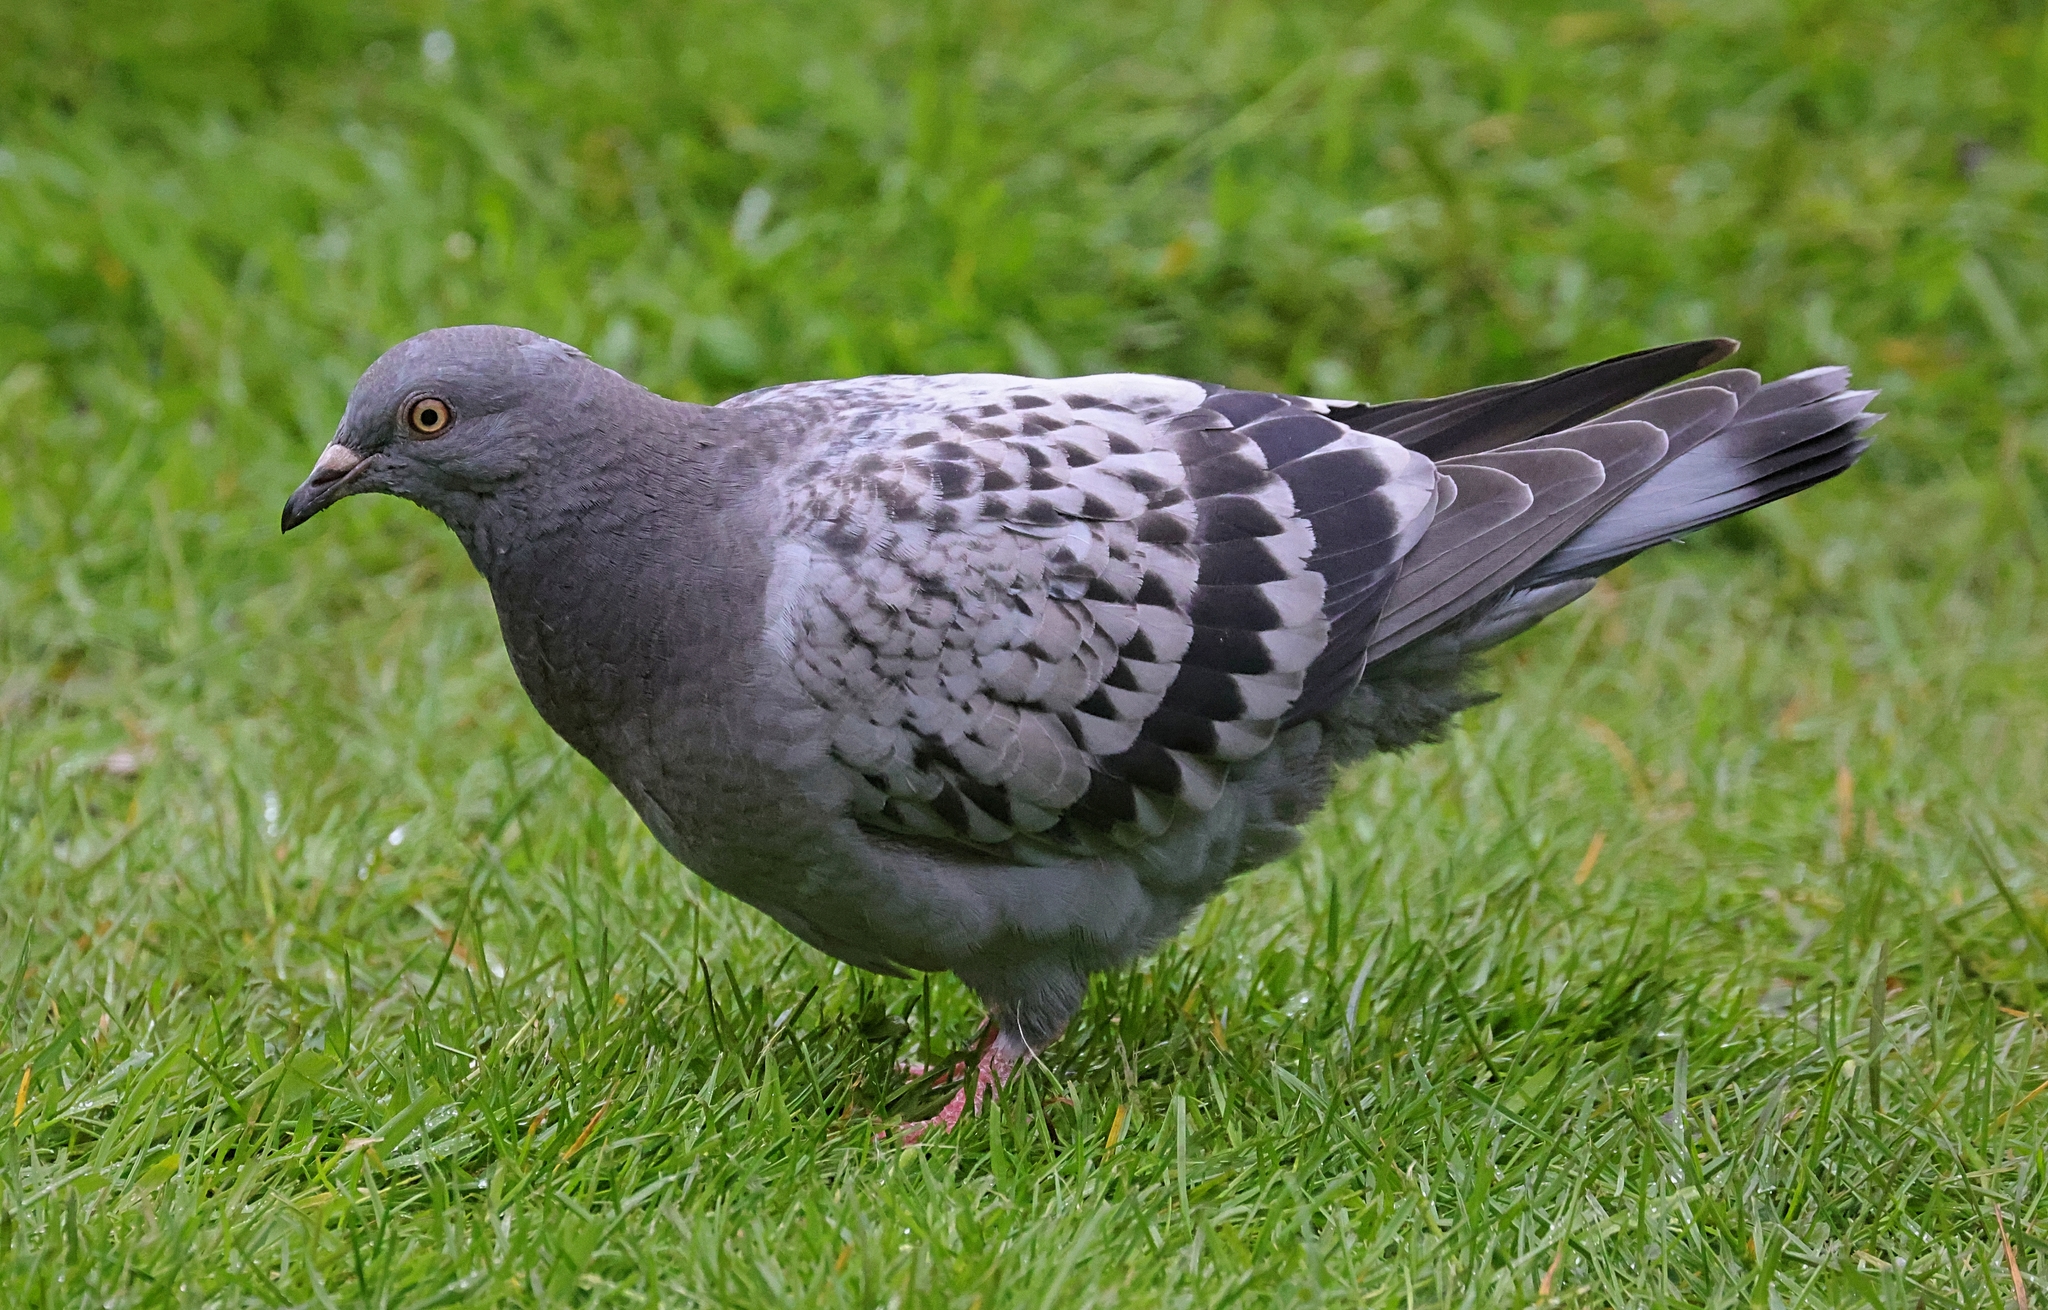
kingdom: Animalia
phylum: Chordata
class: Aves
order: Columbiformes
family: Columbidae
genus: Columba
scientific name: Columba livia
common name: Rock pigeon
